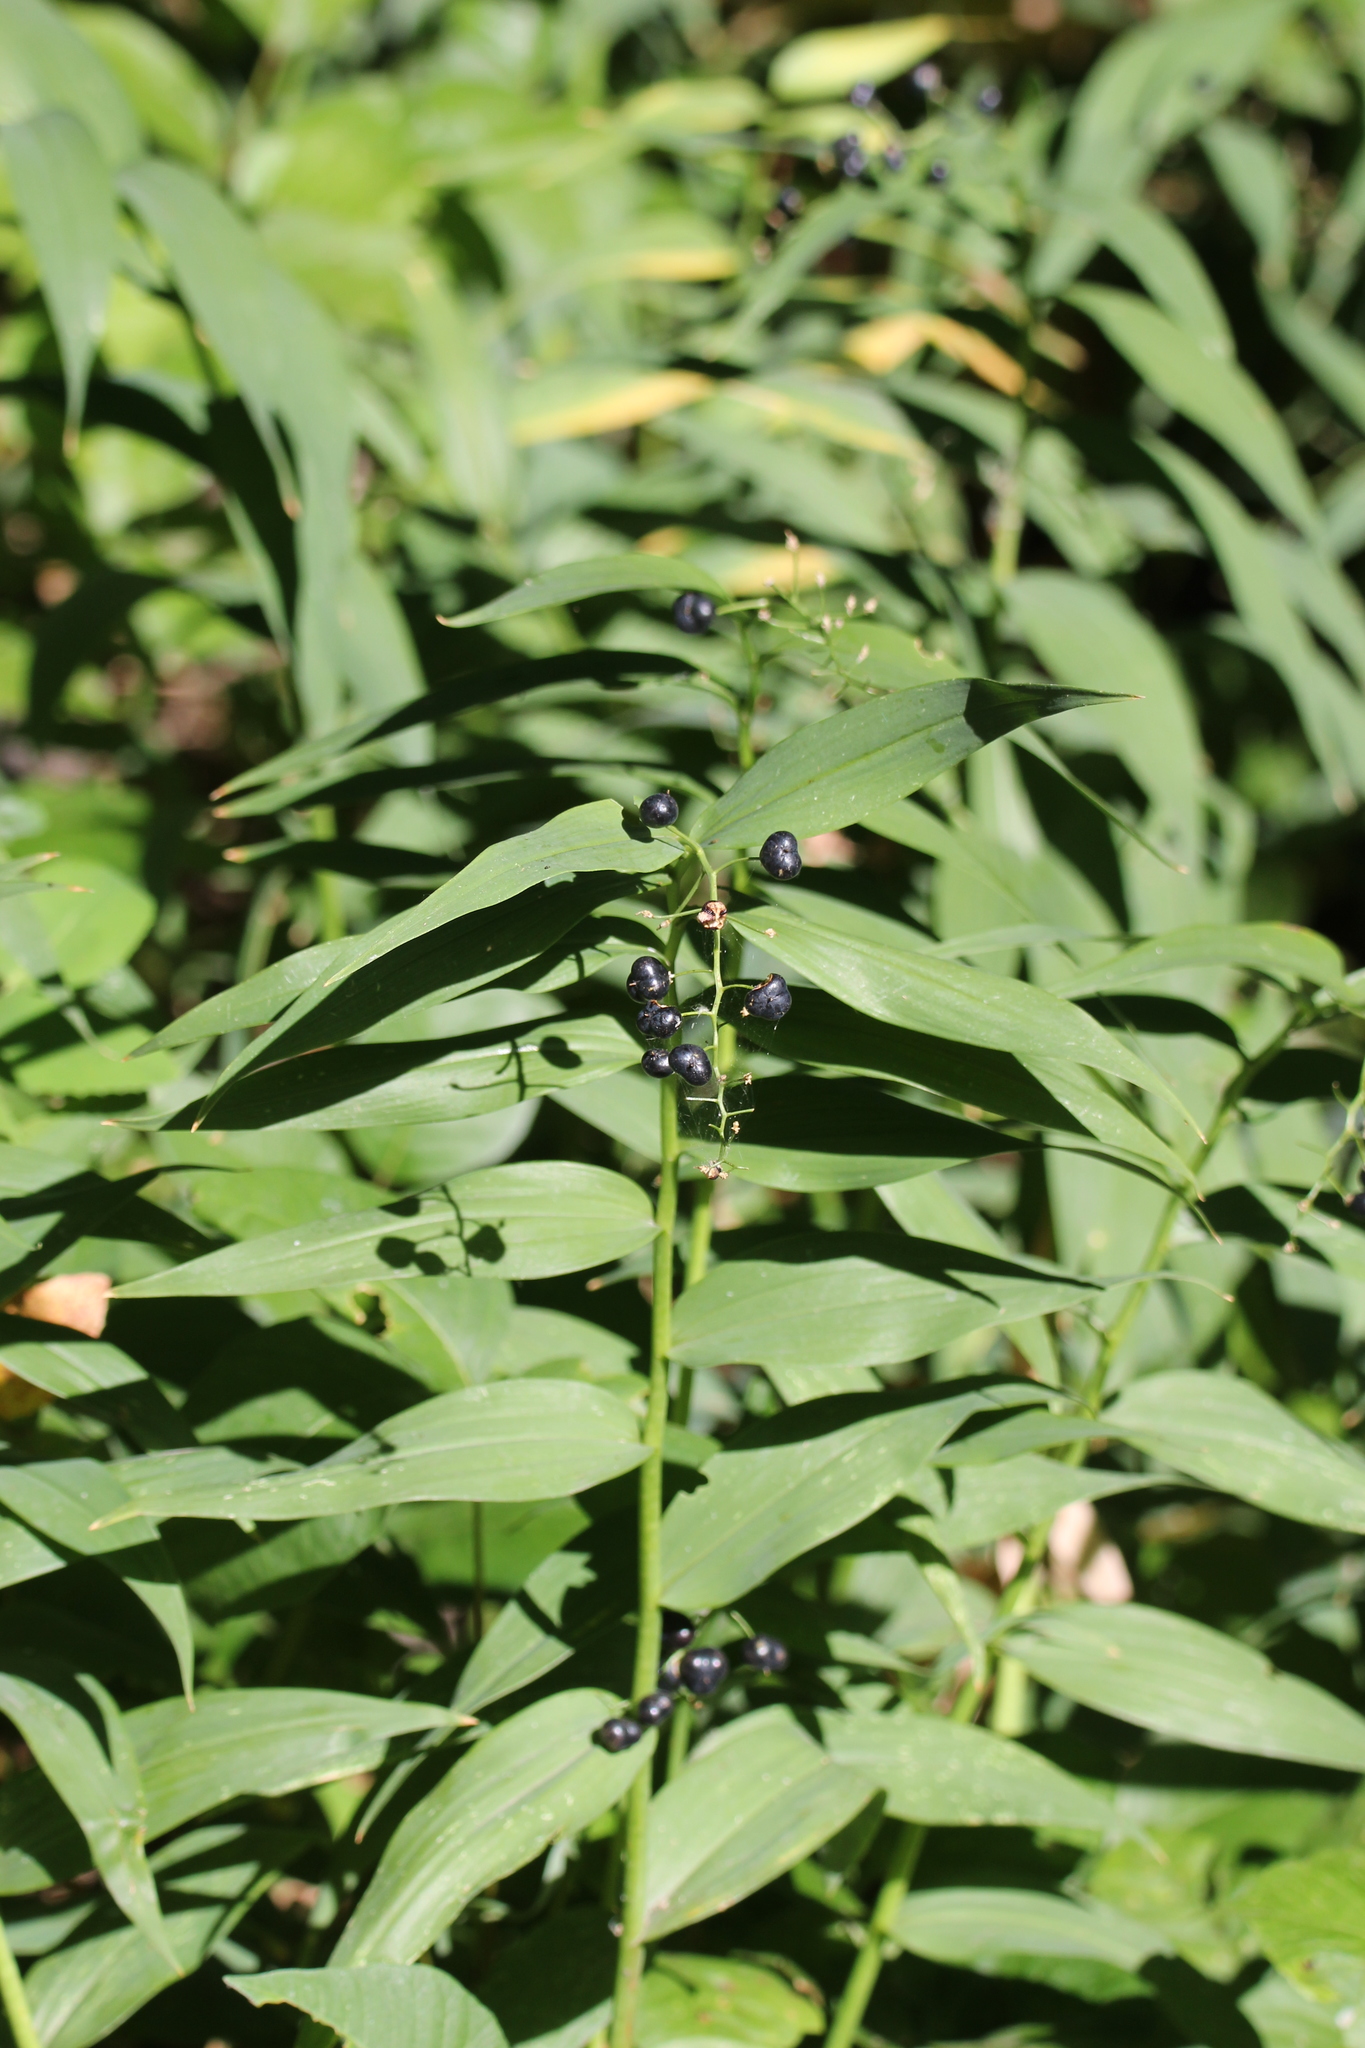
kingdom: Plantae
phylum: Tracheophyta
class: Liliopsida
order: Asparagales
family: Asparagaceae
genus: Maianthemum
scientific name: Maianthemum stellatum
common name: Little false solomon's seal
